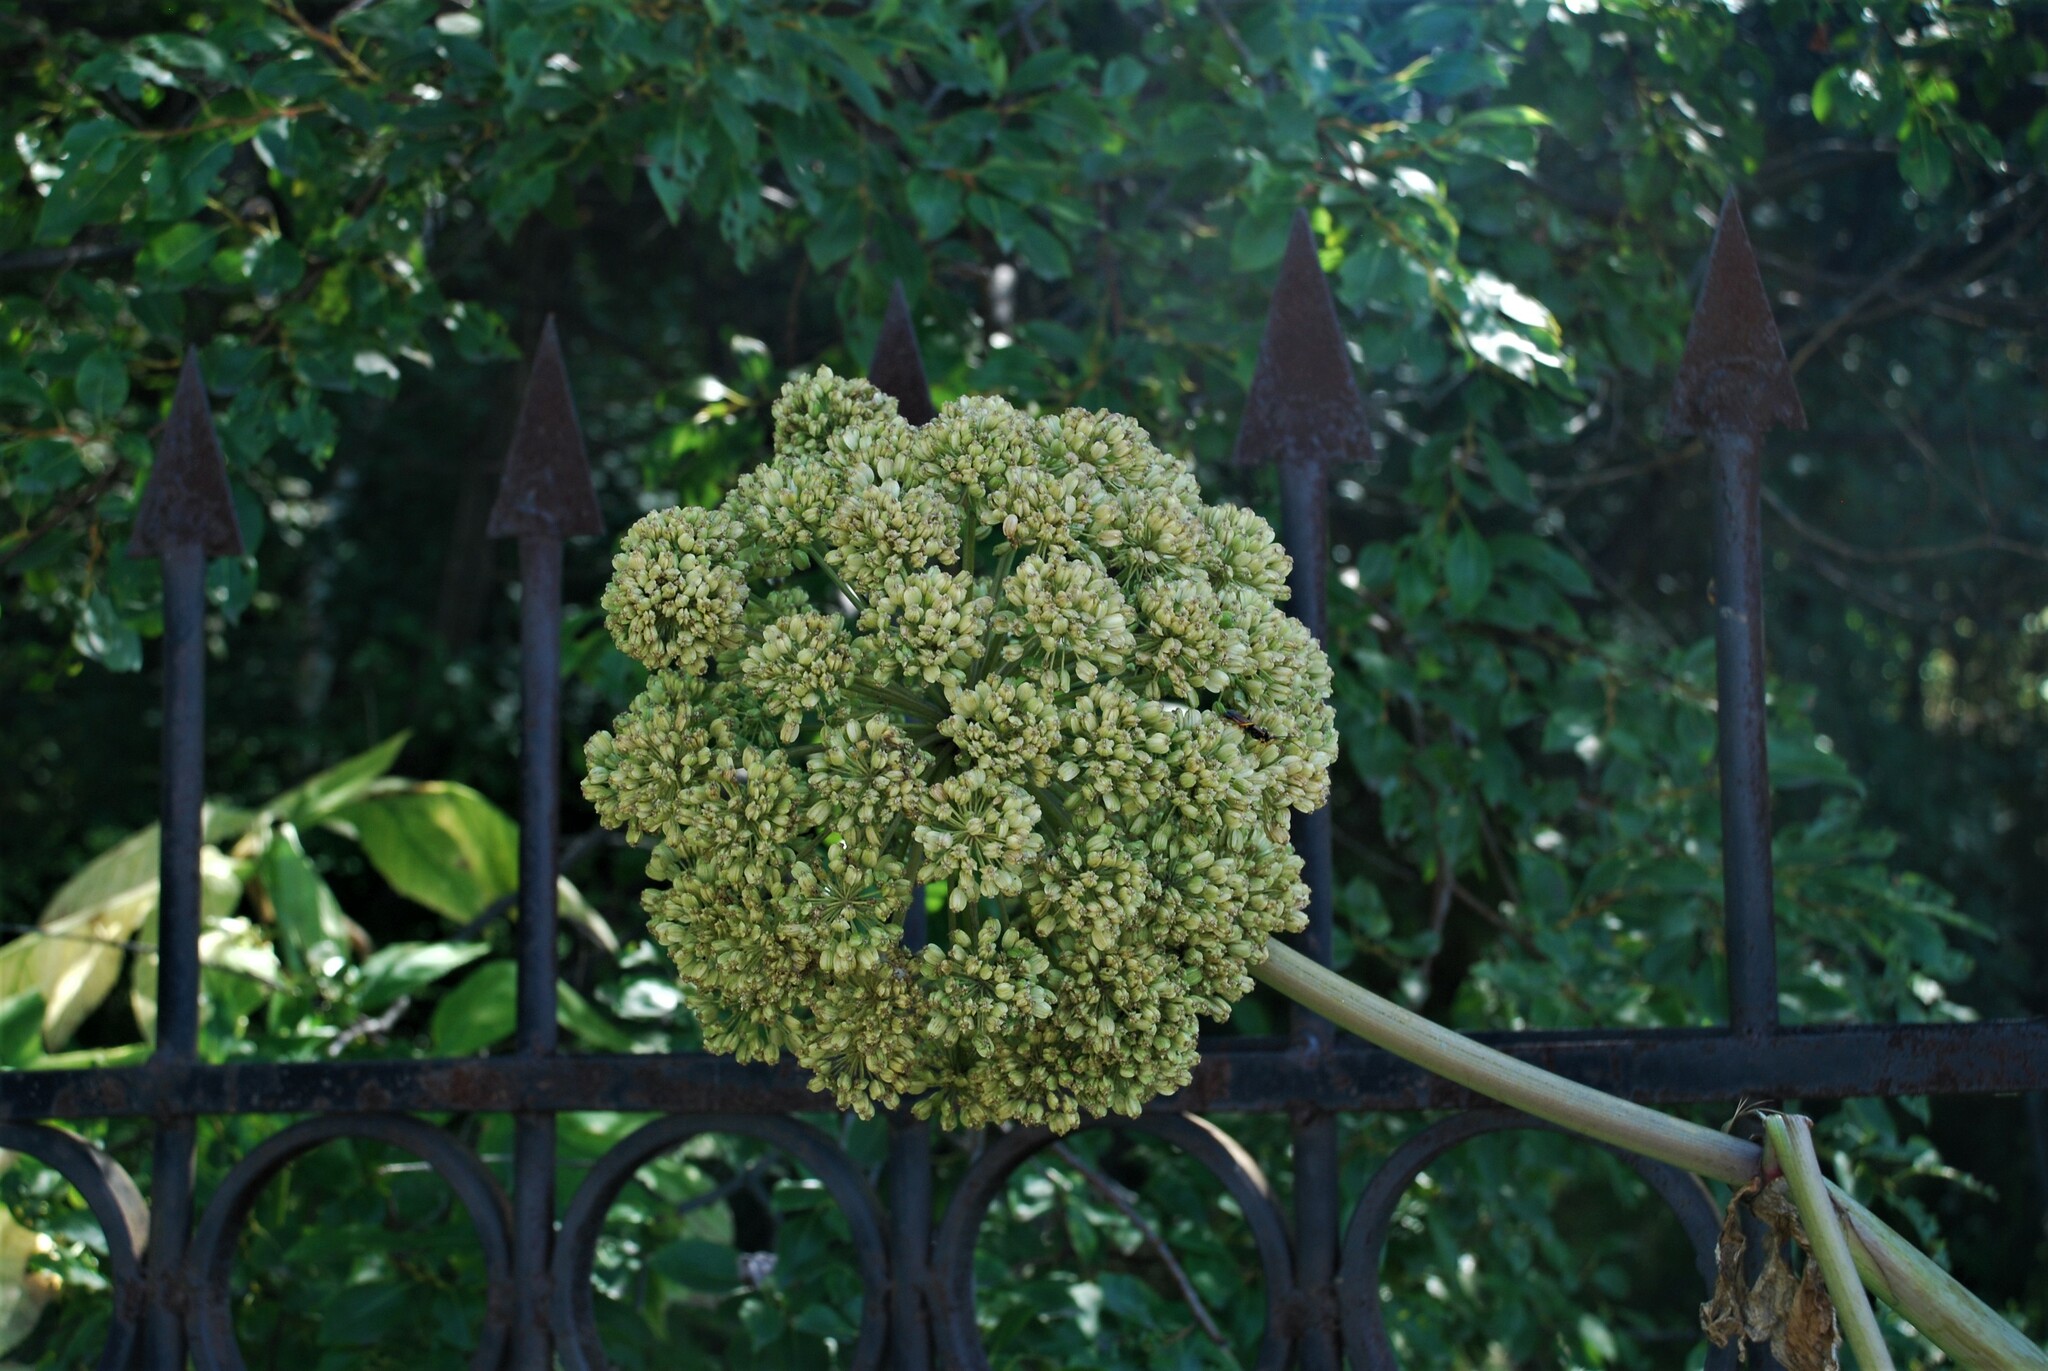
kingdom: Plantae
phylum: Tracheophyta
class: Magnoliopsida
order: Apiales
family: Apiaceae
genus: Angelica
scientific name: Angelica decurrens
